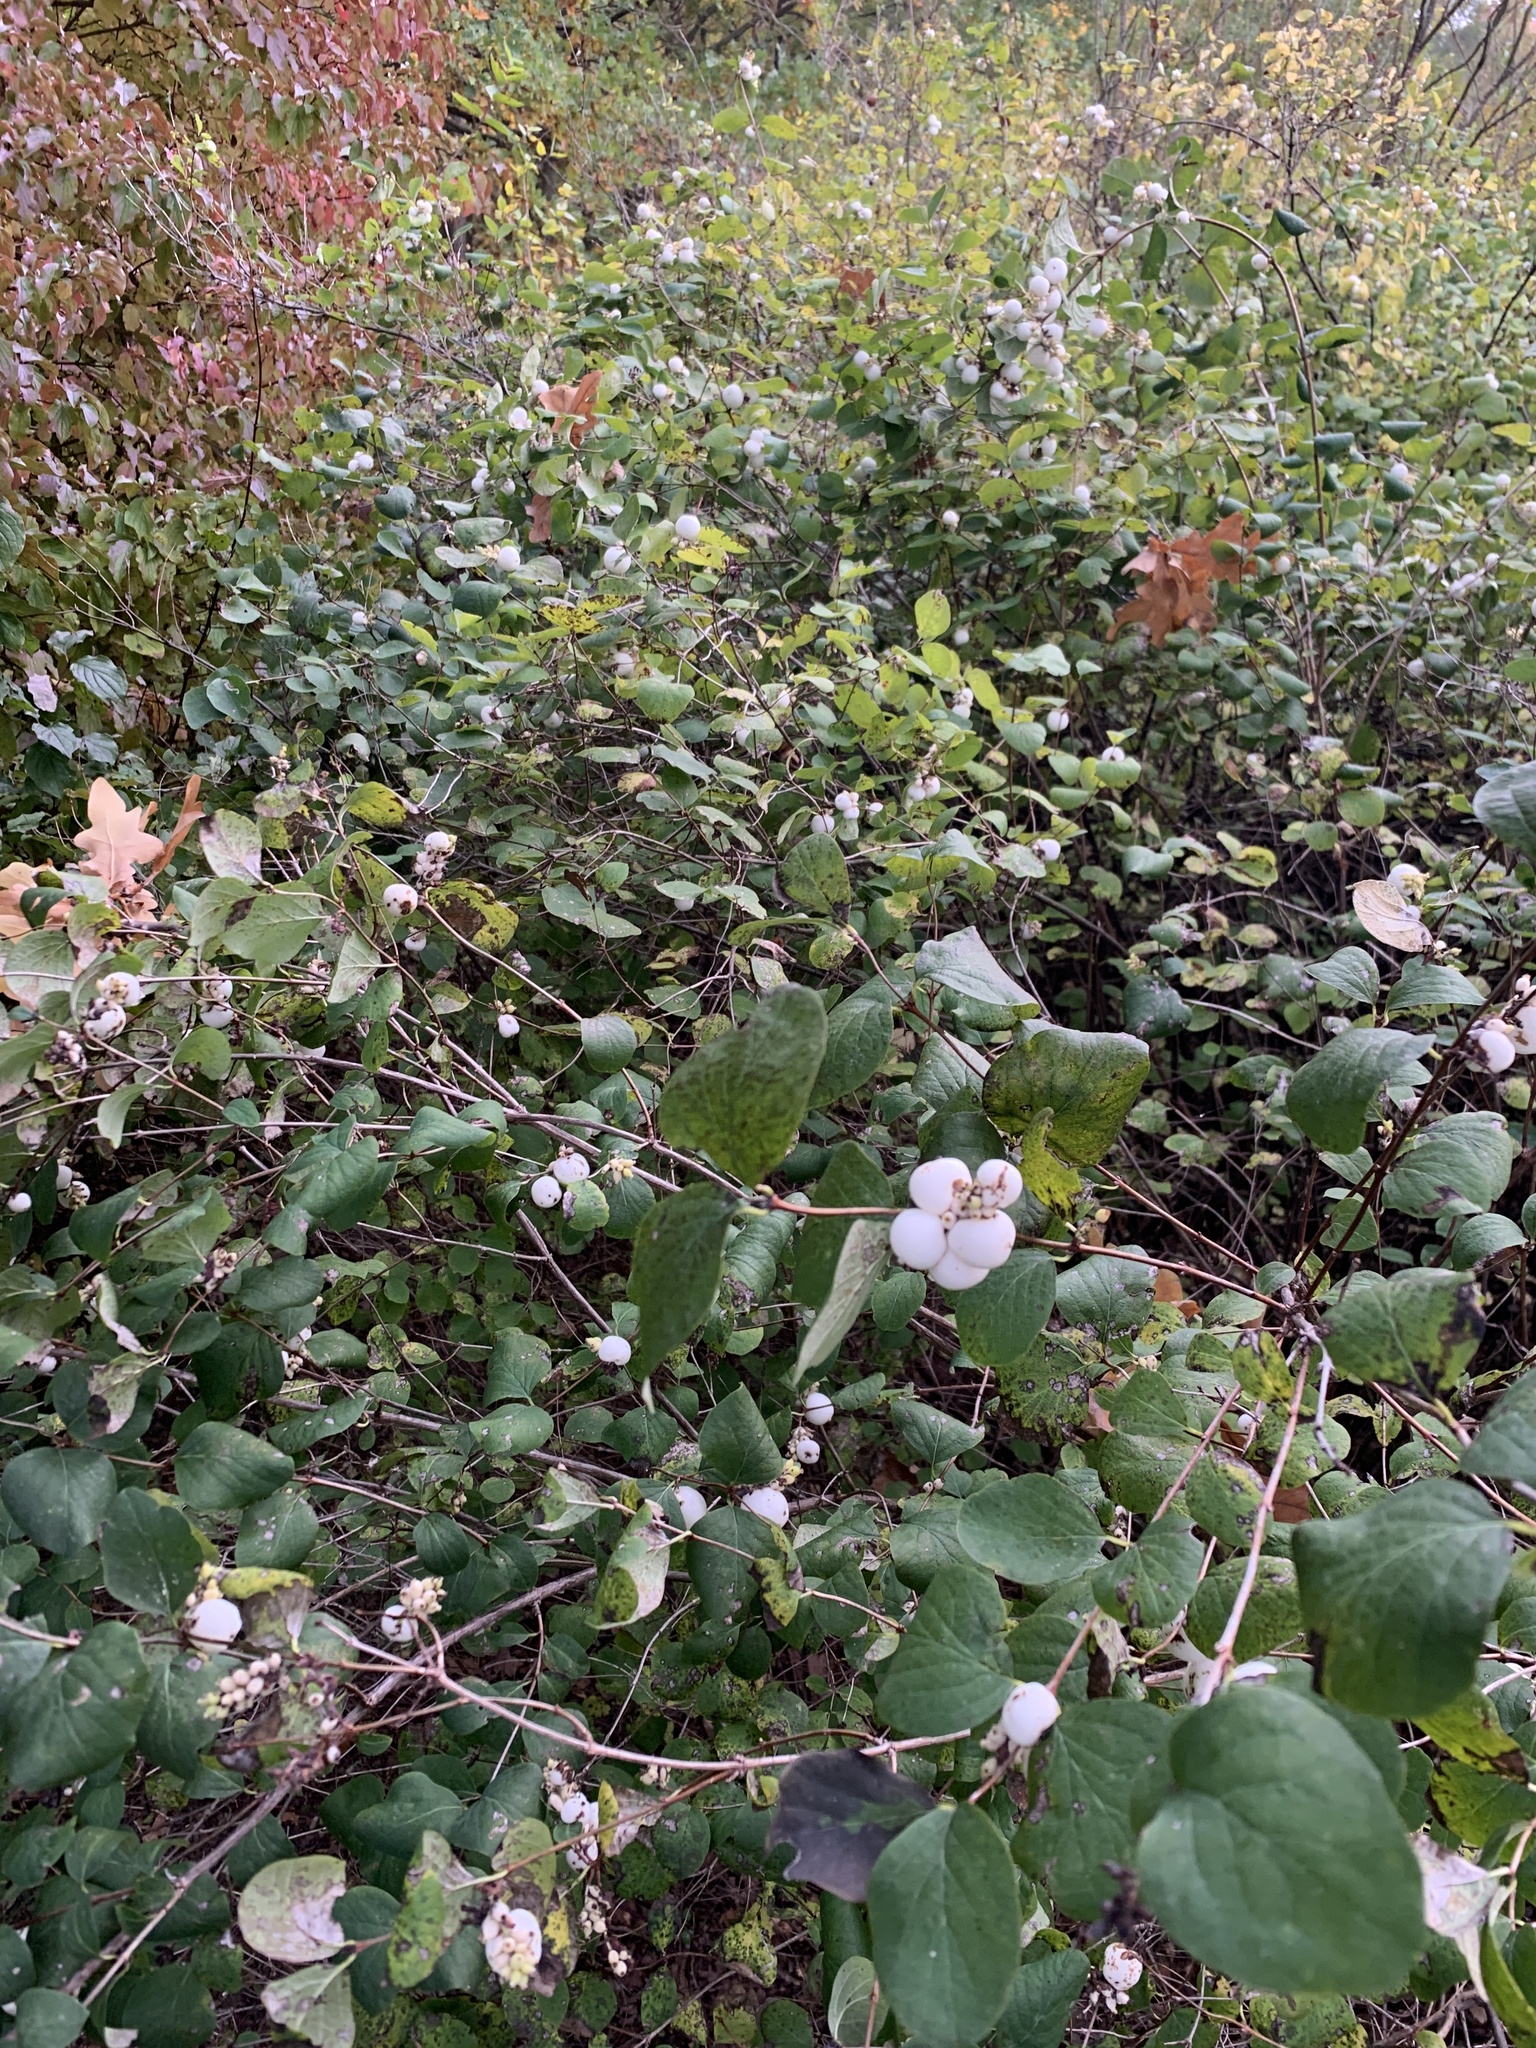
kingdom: Plantae
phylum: Tracheophyta
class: Magnoliopsida
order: Dipsacales
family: Caprifoliaceae
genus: Symphoricarpos
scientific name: Symphoricarpos albus
